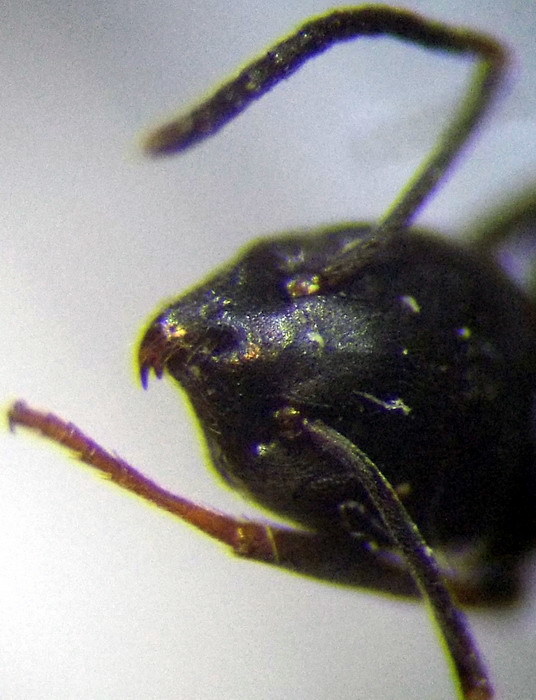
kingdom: Animalia
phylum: Arthropoda
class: Insecta
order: Hymenoptera
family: Formicidae
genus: Tapinoma
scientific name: Tapinoma erraticum
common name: Erratic ant
